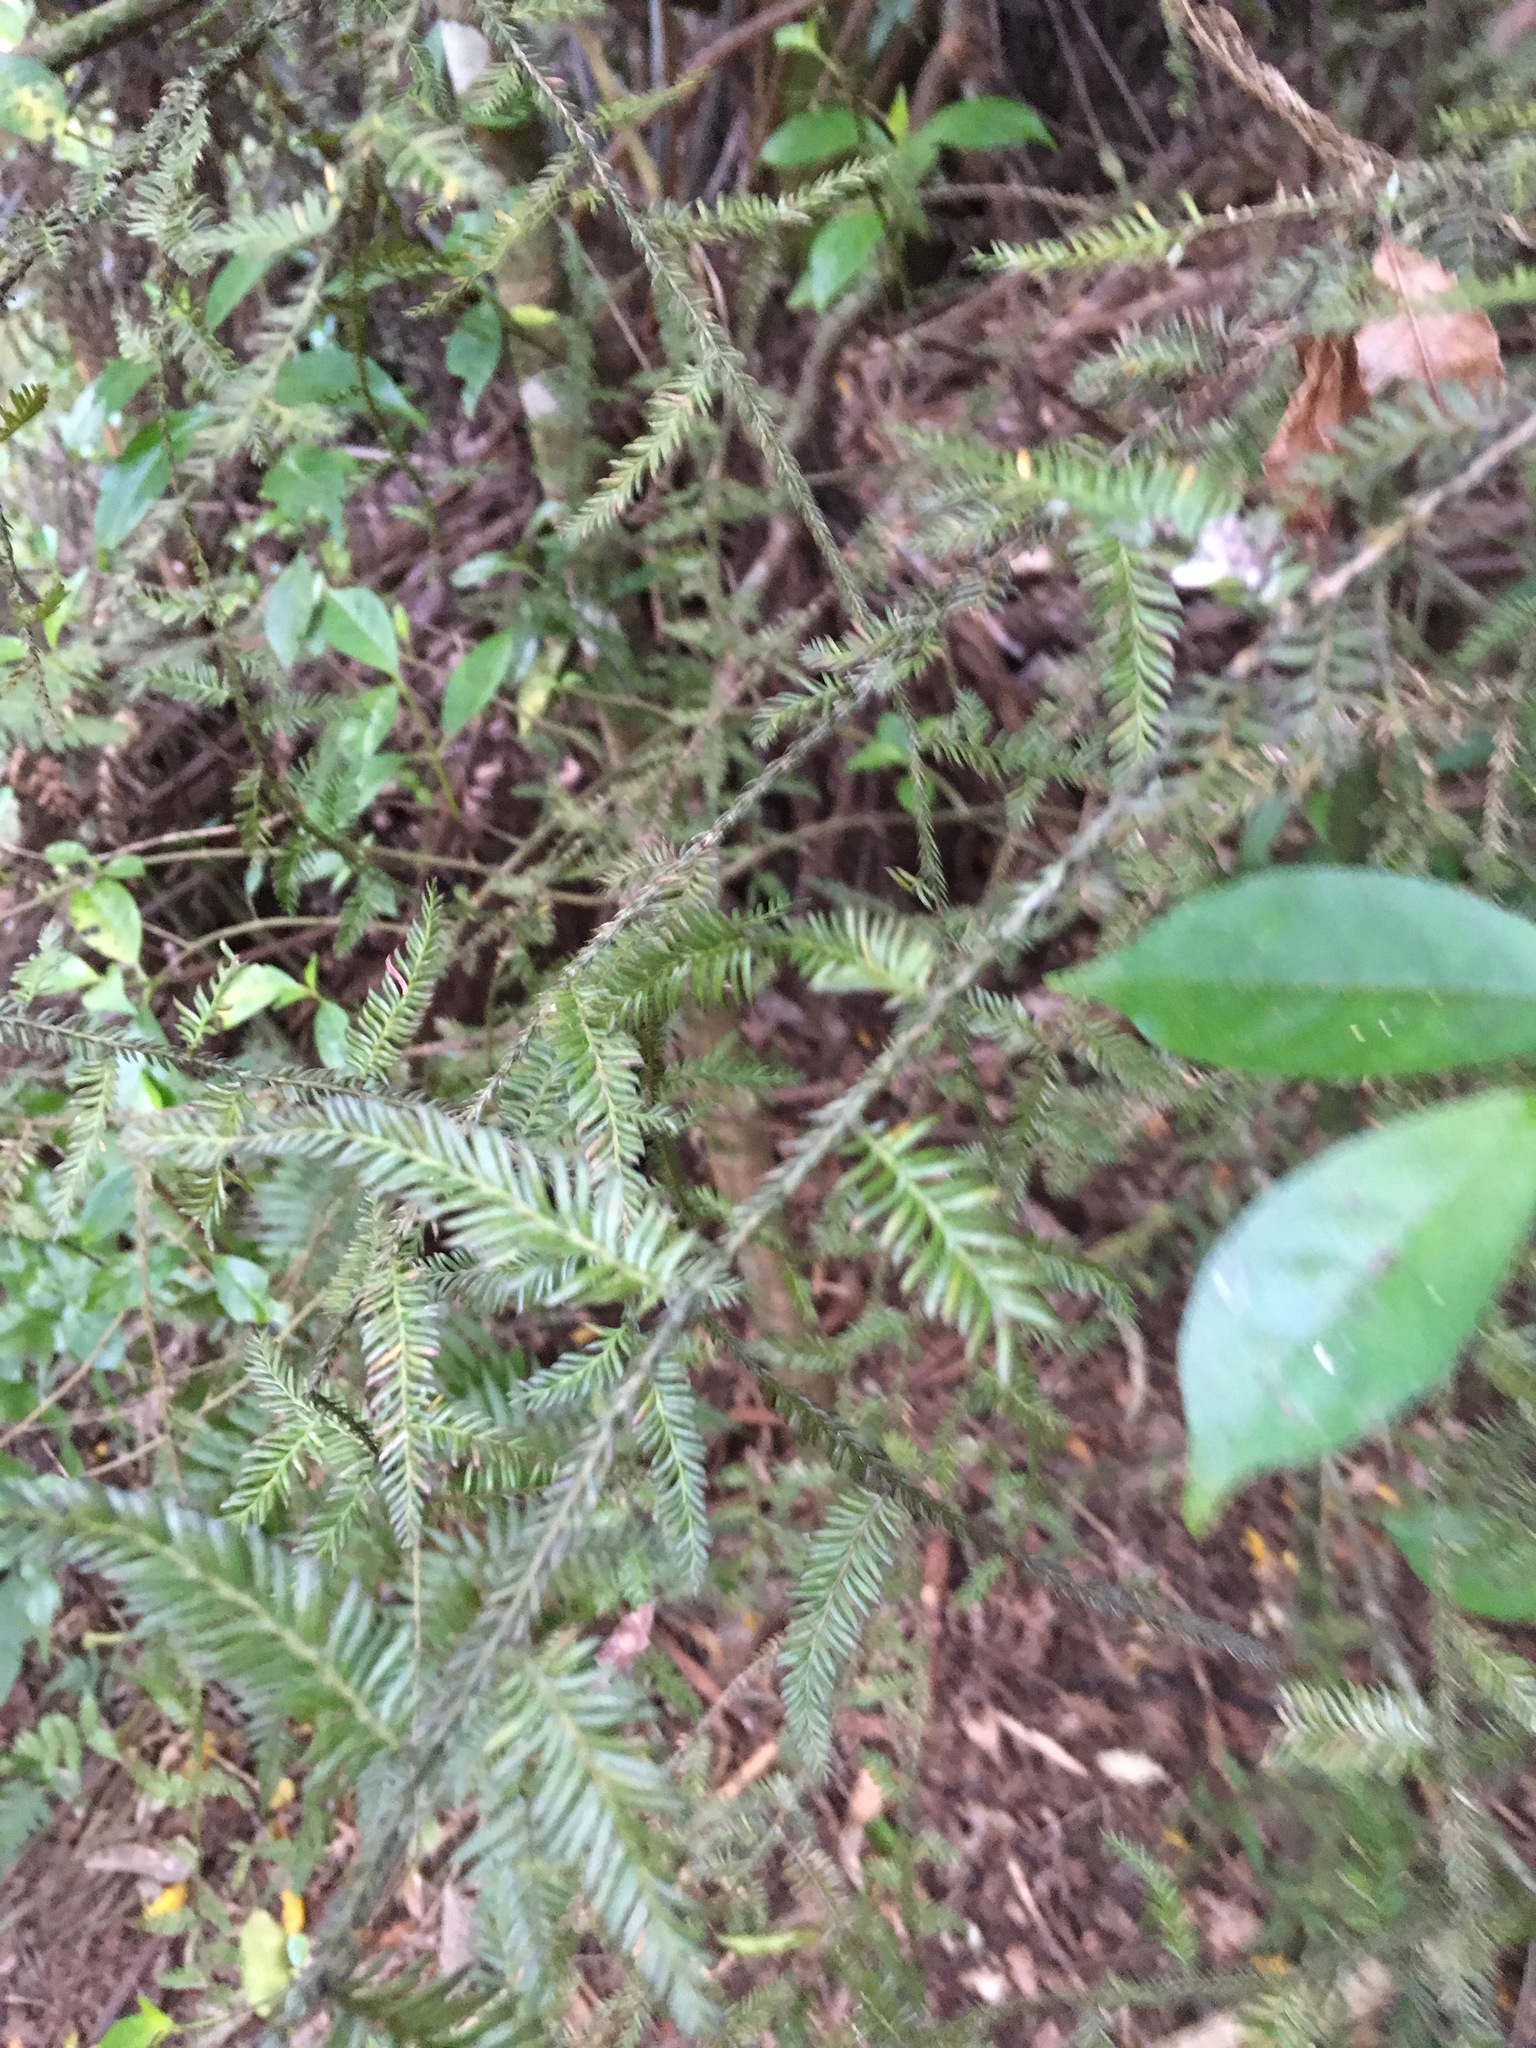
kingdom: Plantae
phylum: Tracheophyta
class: Pinopsida
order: Pinales
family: Podocarpaceae
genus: Dacrycarpus
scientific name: Dacrycarpus dacrydioides
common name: White pine
